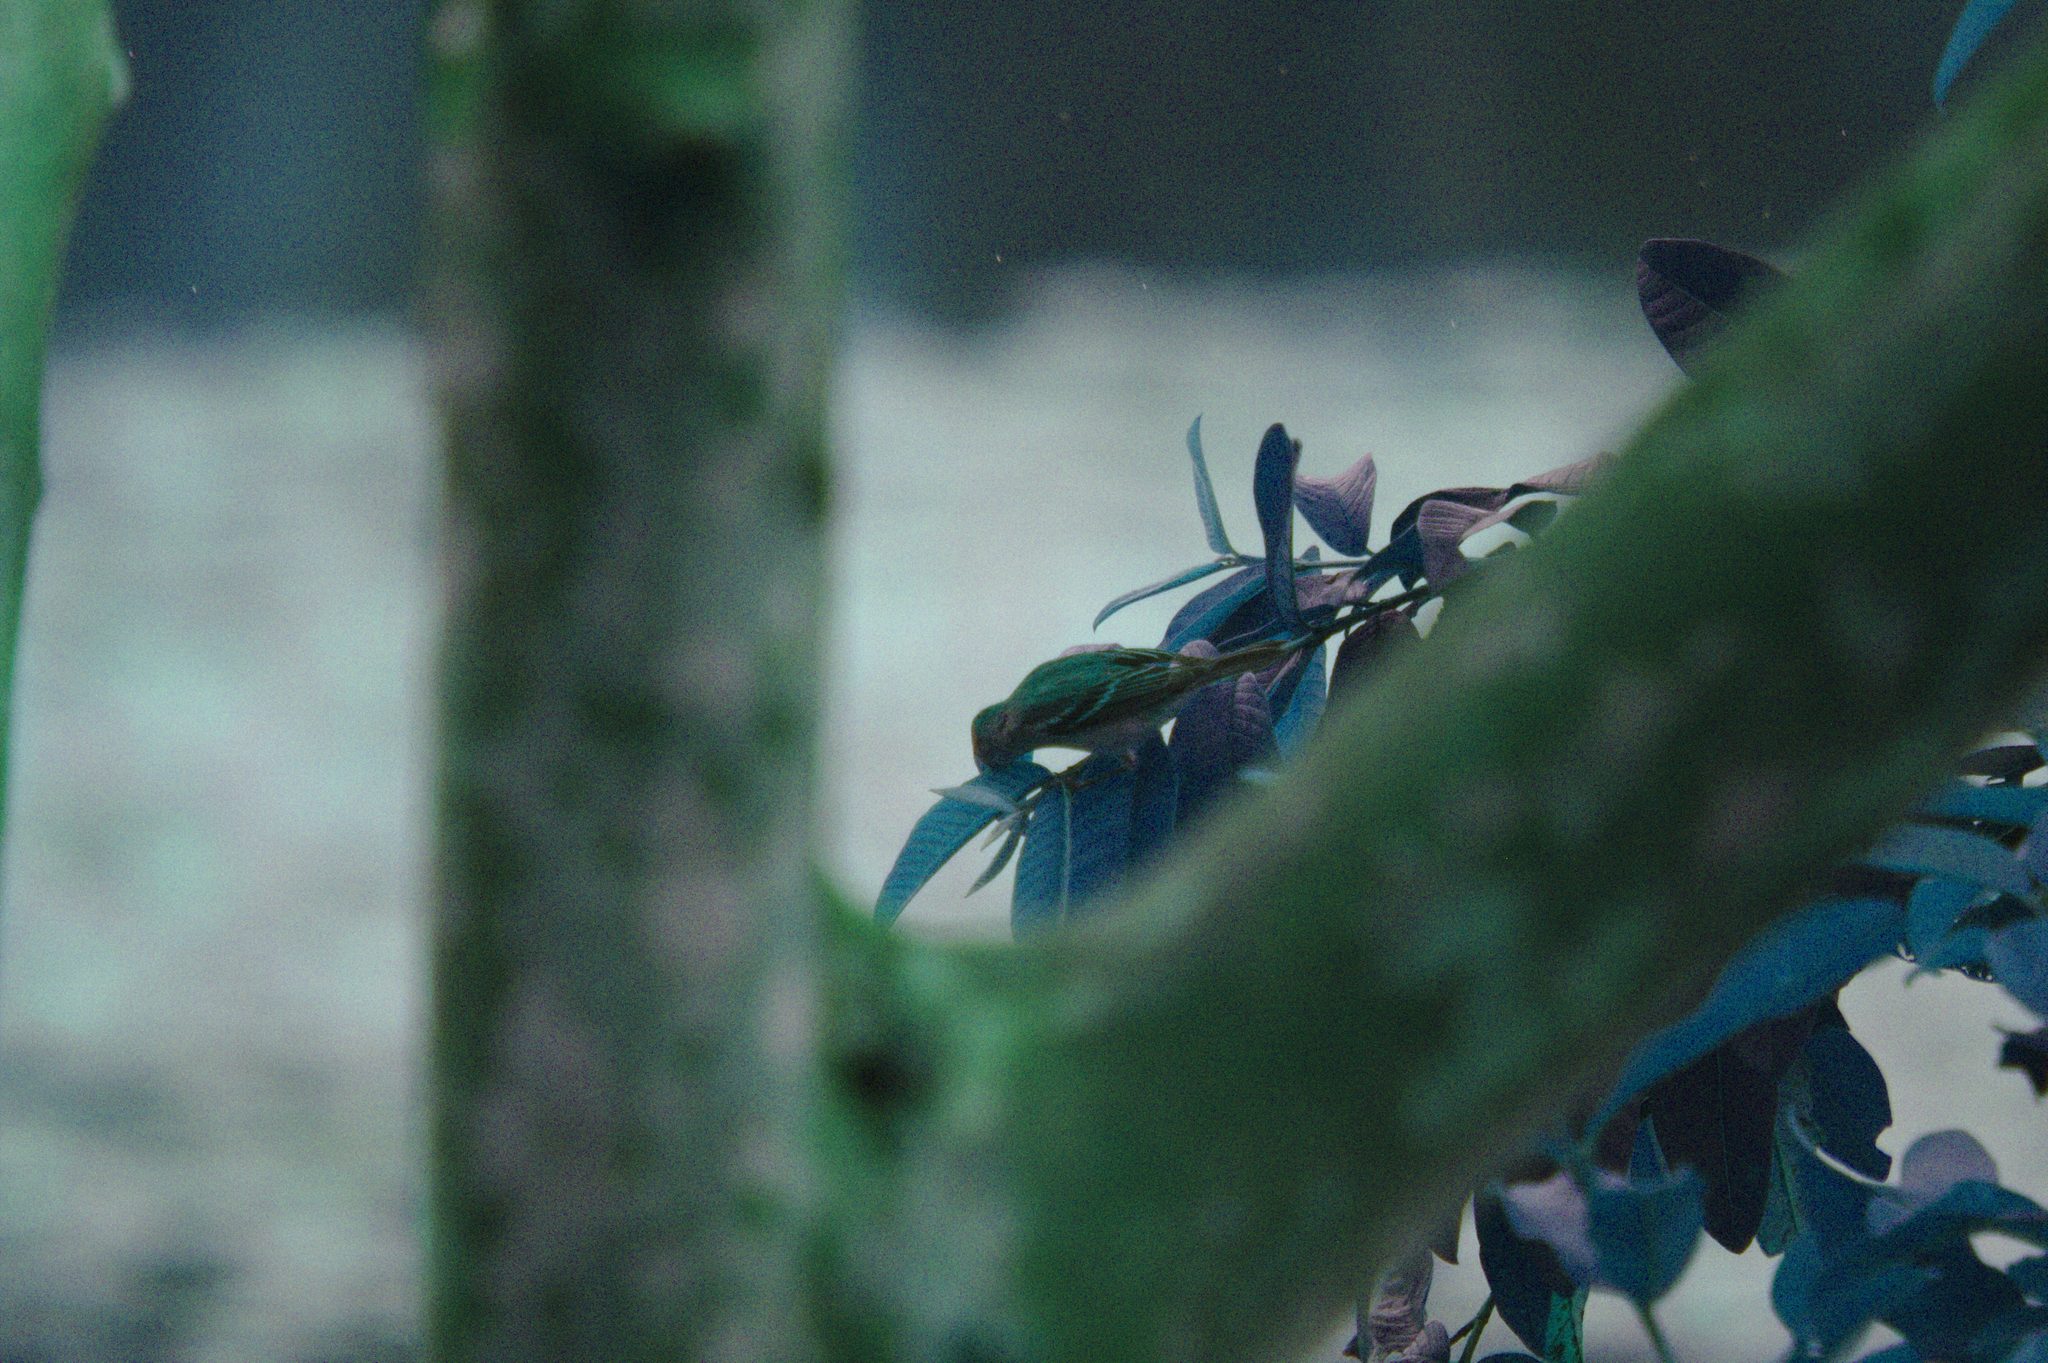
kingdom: Animalia
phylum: Chordata
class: Aves
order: Passeriformes
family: Parulidae
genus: Setophaga
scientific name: Setophaga pensylvanica
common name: Chestnut-sided warbler
